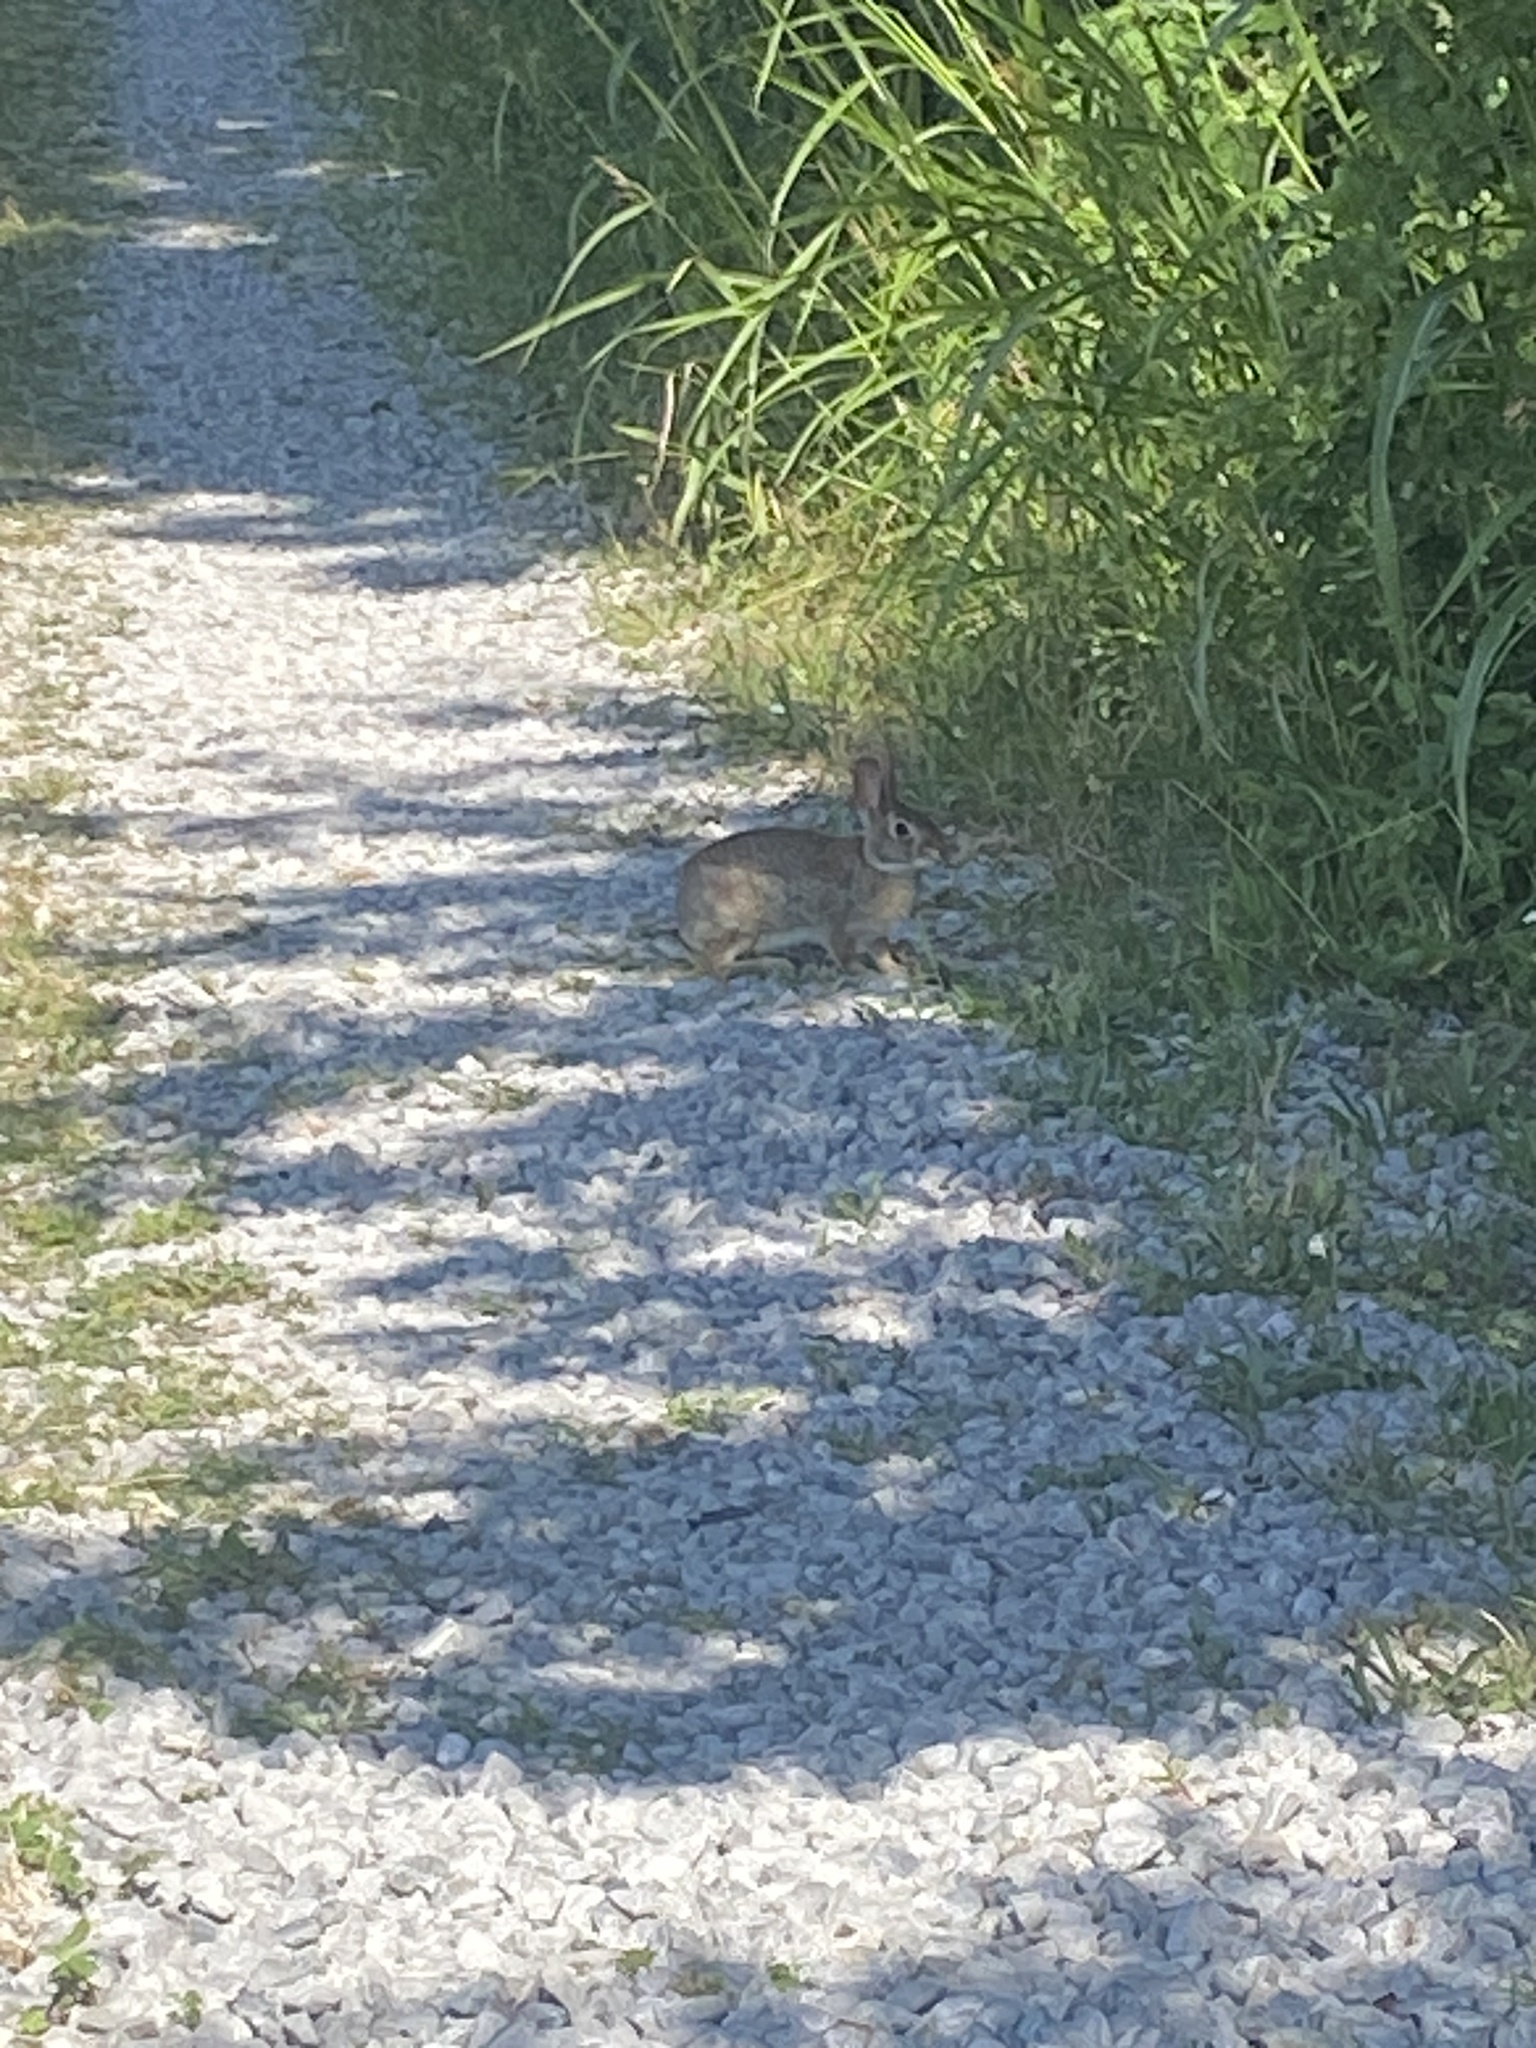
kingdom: Animalia
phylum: Chordata
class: Mammalia
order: Lagomorpha
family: Leporidae
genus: Sylvilagus
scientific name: Sylvilagus floridanus
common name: Eastern cottontail
